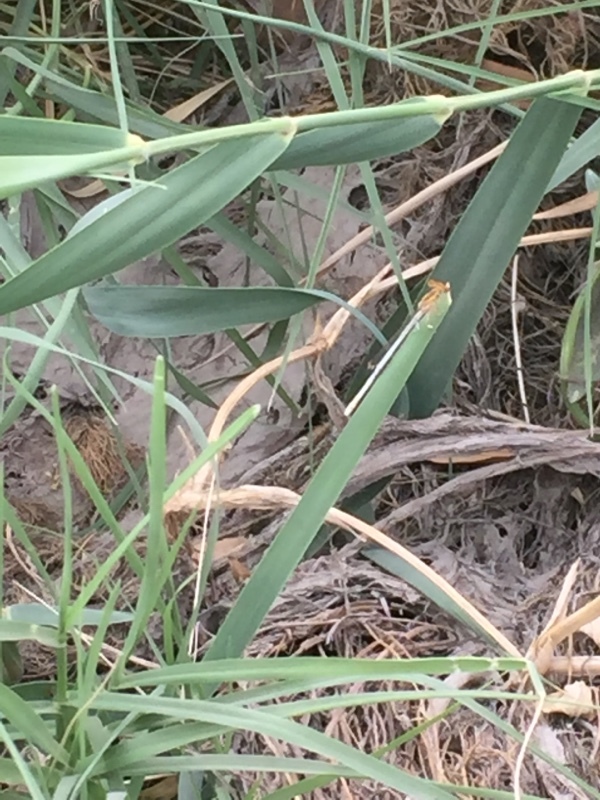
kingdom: Animalia
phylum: Arthropoda
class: Insecta
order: Odonata
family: Platycnemididae
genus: Platycnemis
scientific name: Platycnemis dealbata
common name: Ivory featherleg
